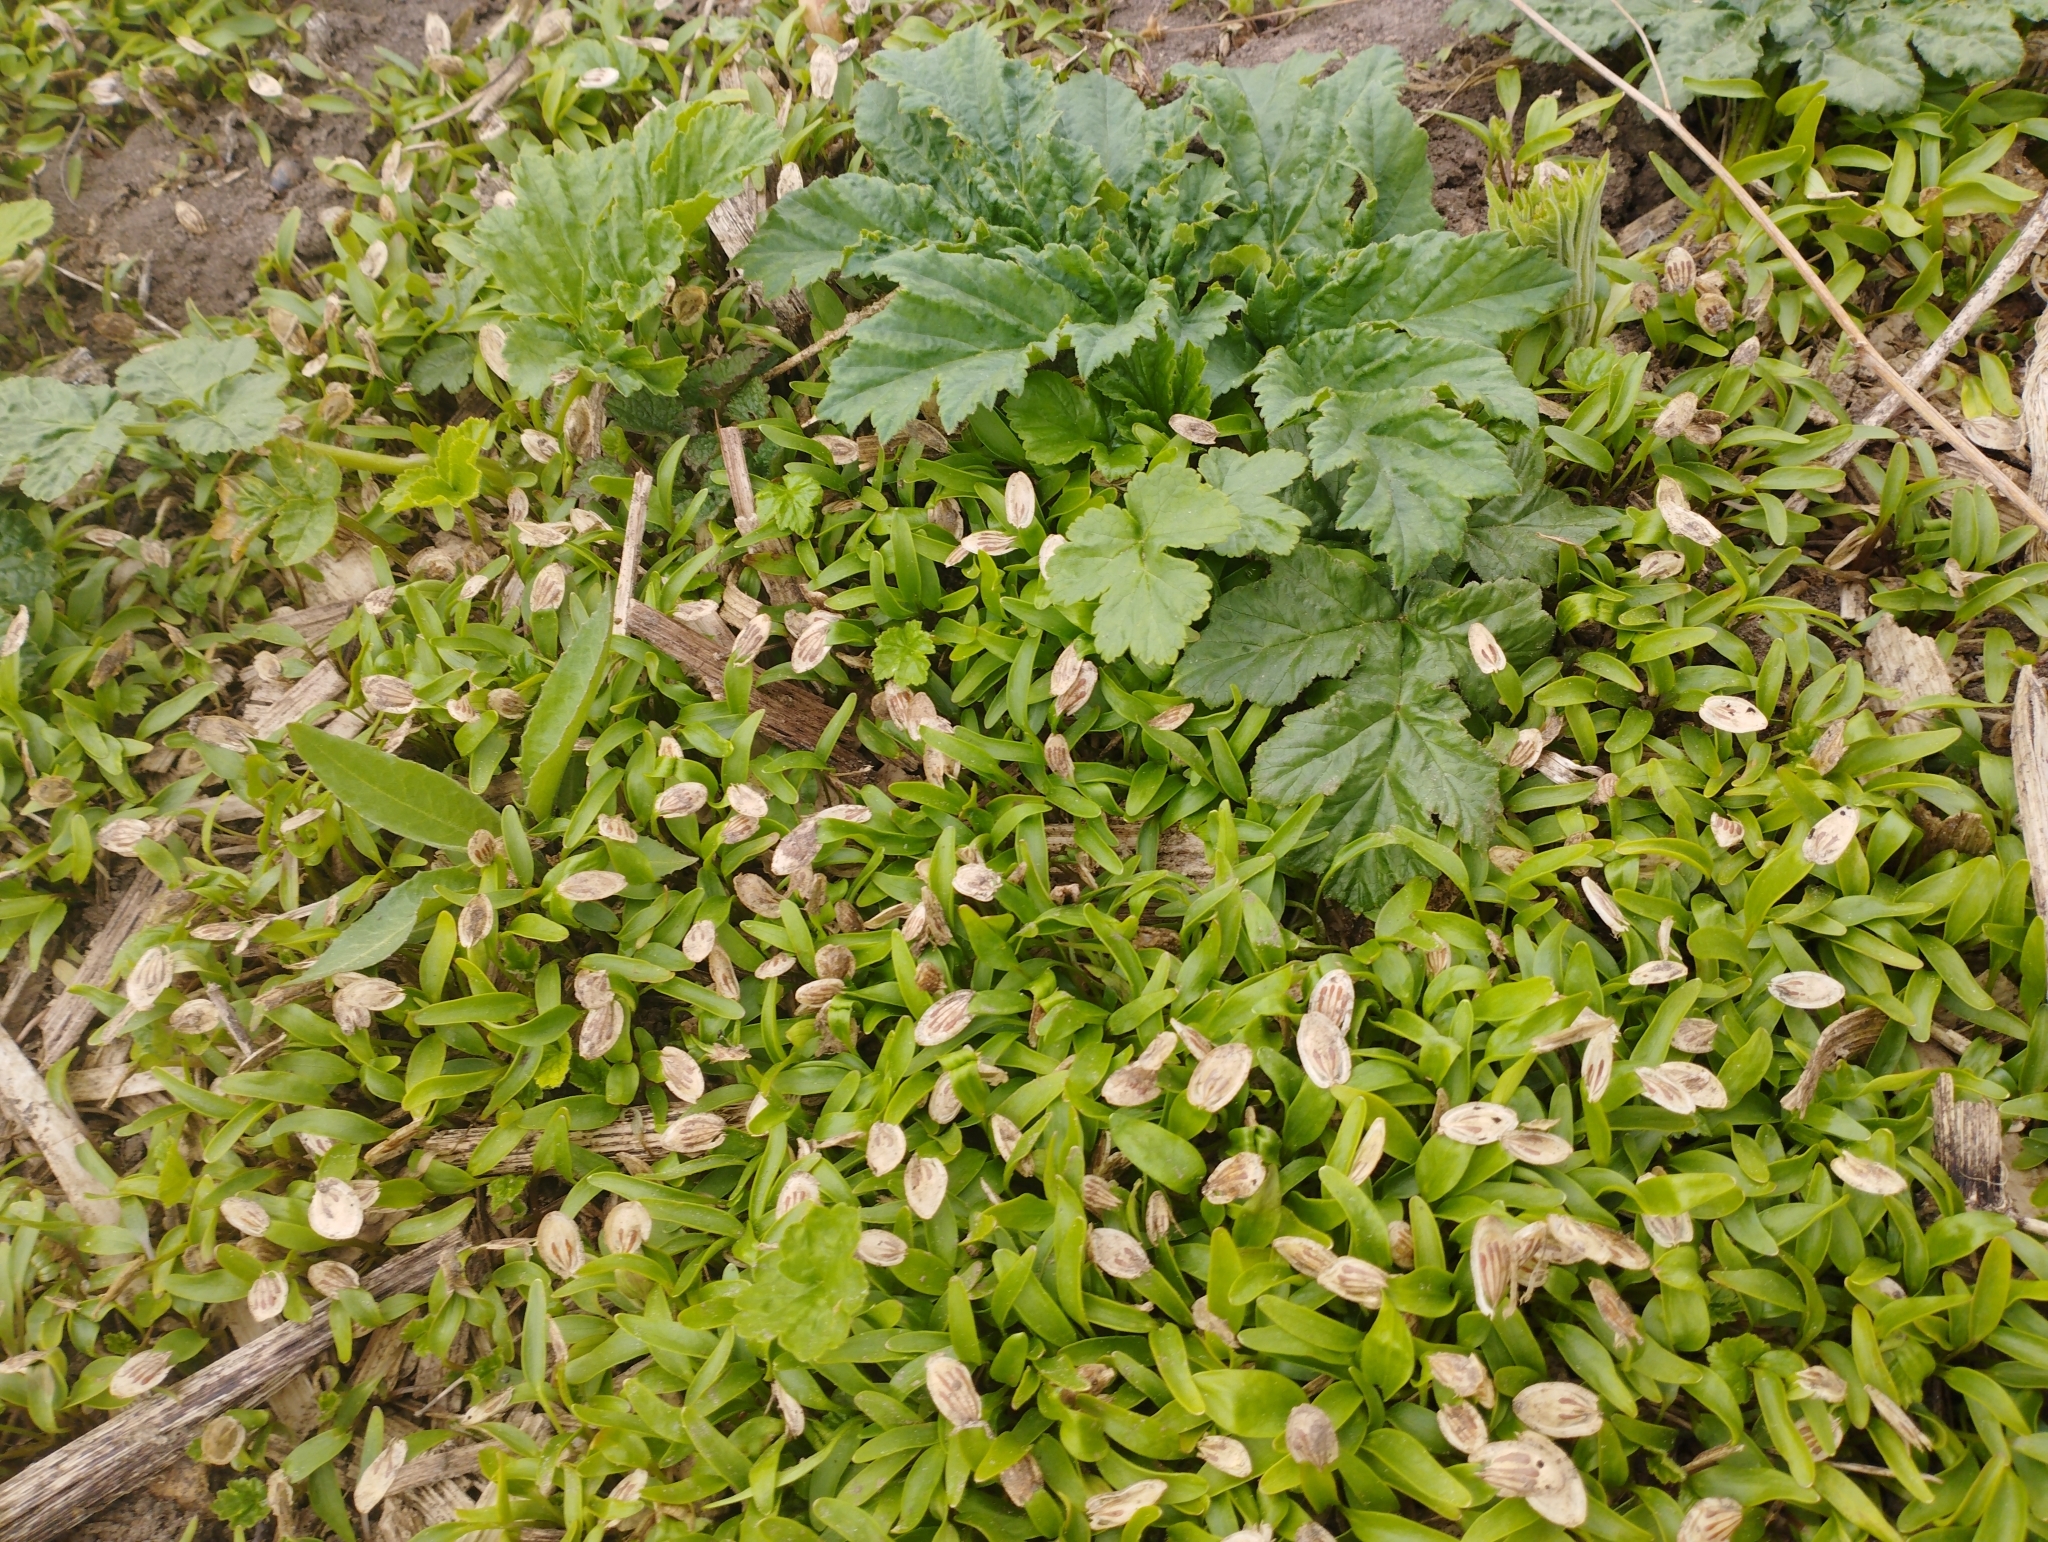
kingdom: Plantae
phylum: Tracheophyta
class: Magnoliopsida
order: Apiales
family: Apiaceae
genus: Heracleum
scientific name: Heracleum sosnowskyi
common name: Sosnowsky's hogweed
